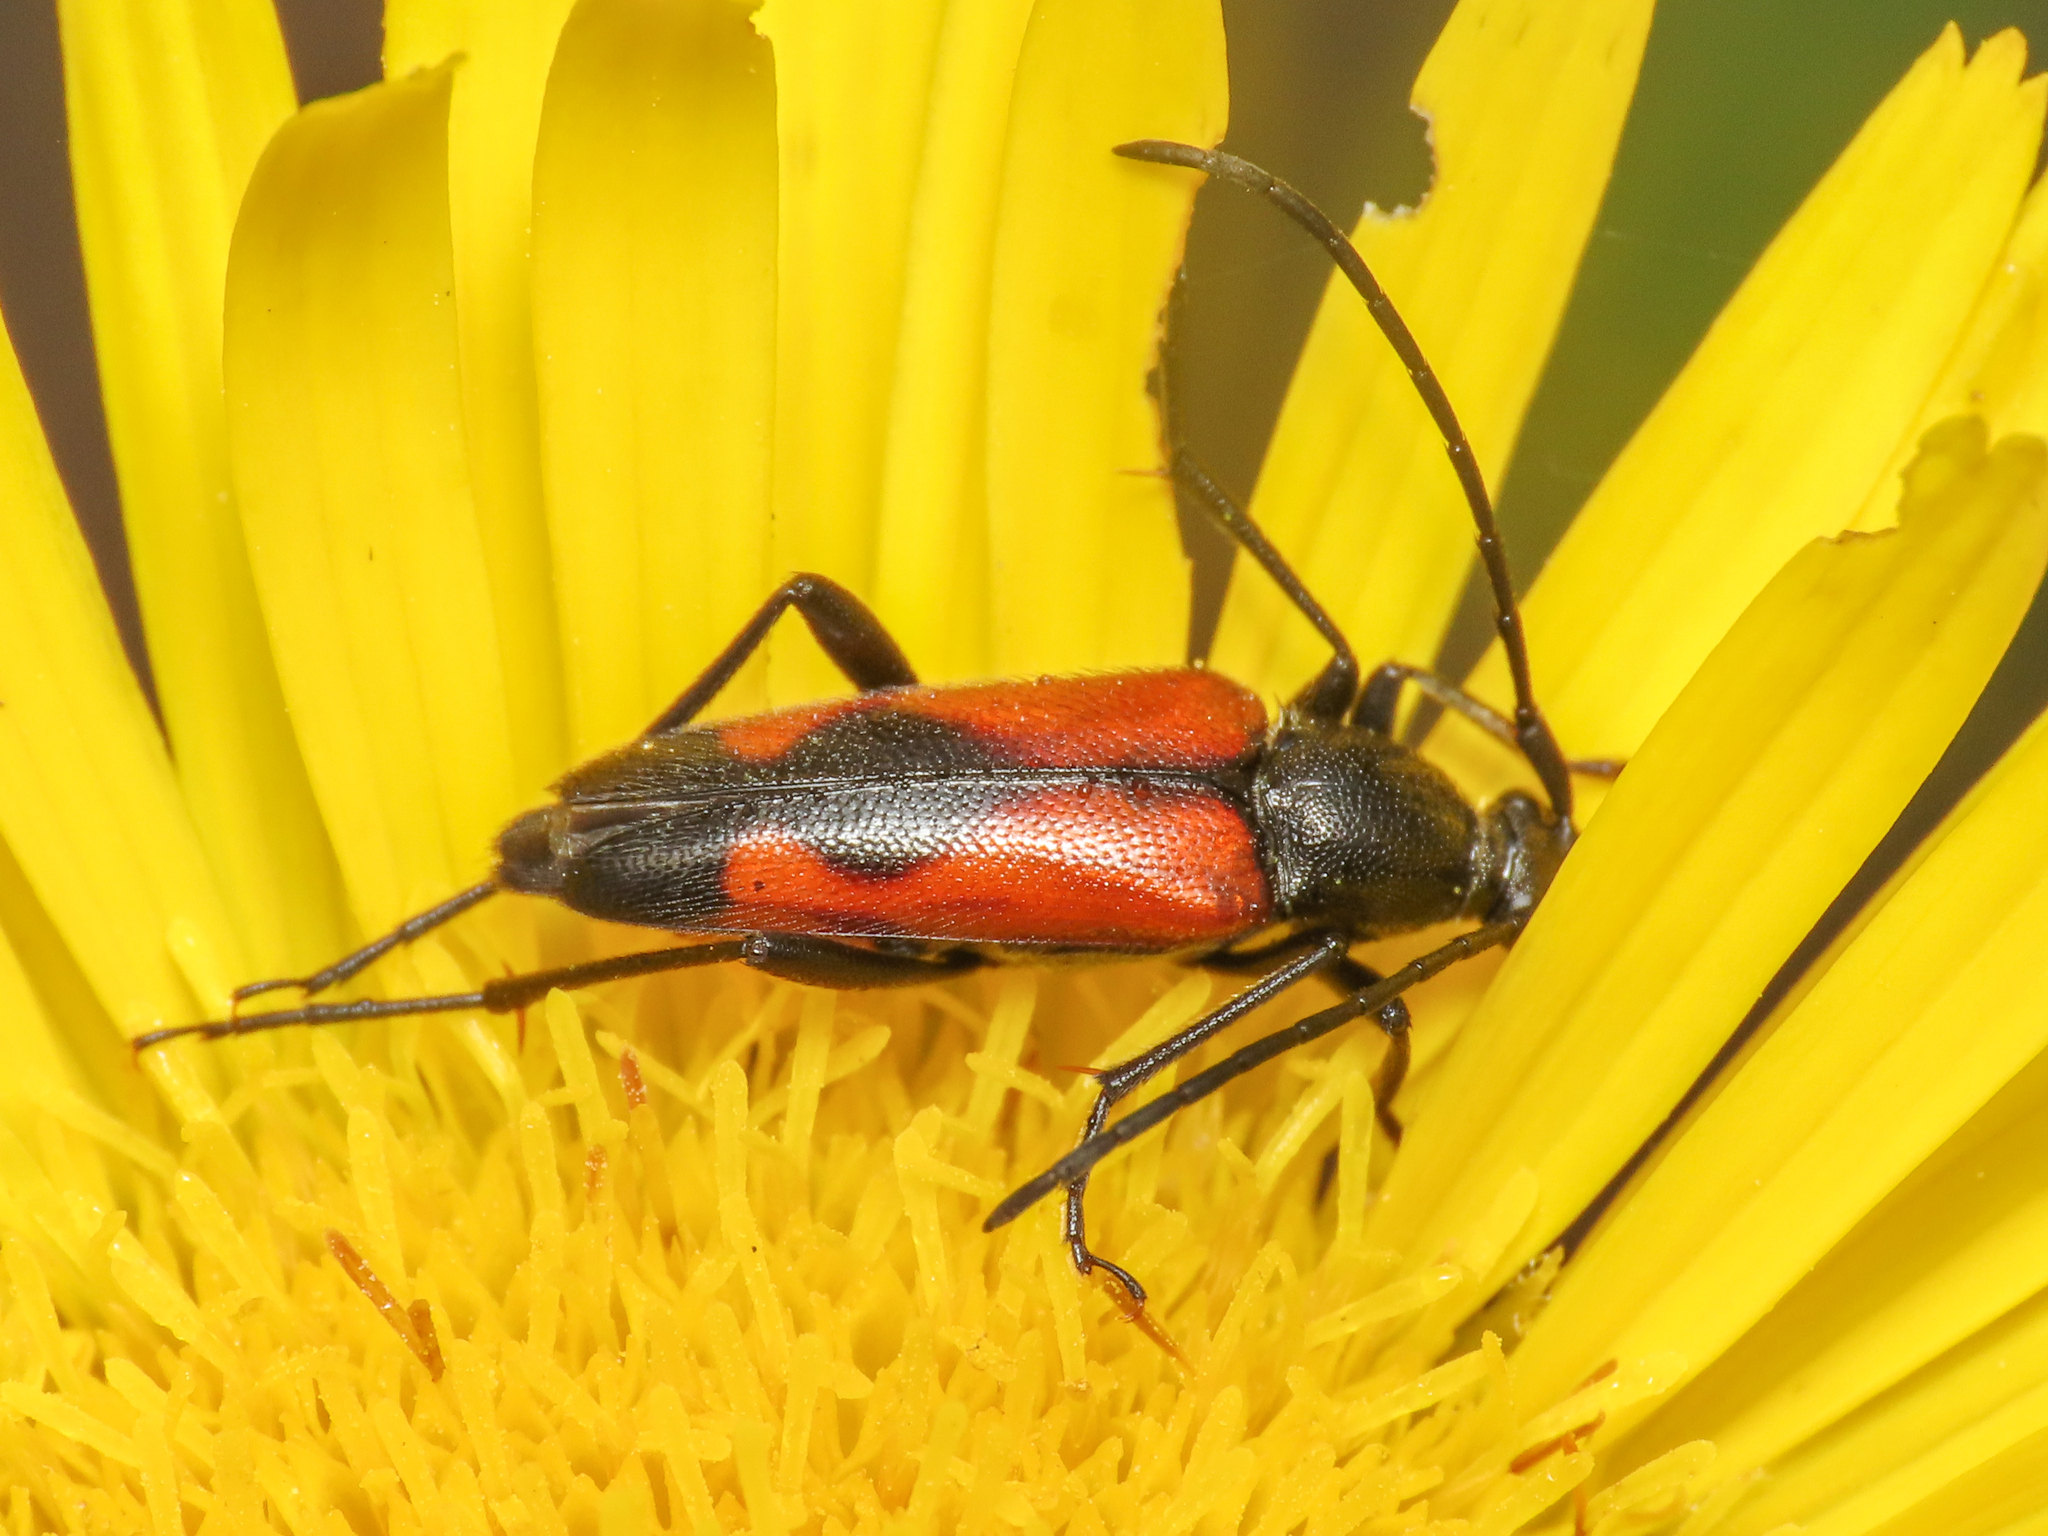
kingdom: Animalia
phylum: Arthropoda
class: Insecta
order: Coleoptera
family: Cerambycidae
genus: Stenurella
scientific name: Stenurella bifasciata
